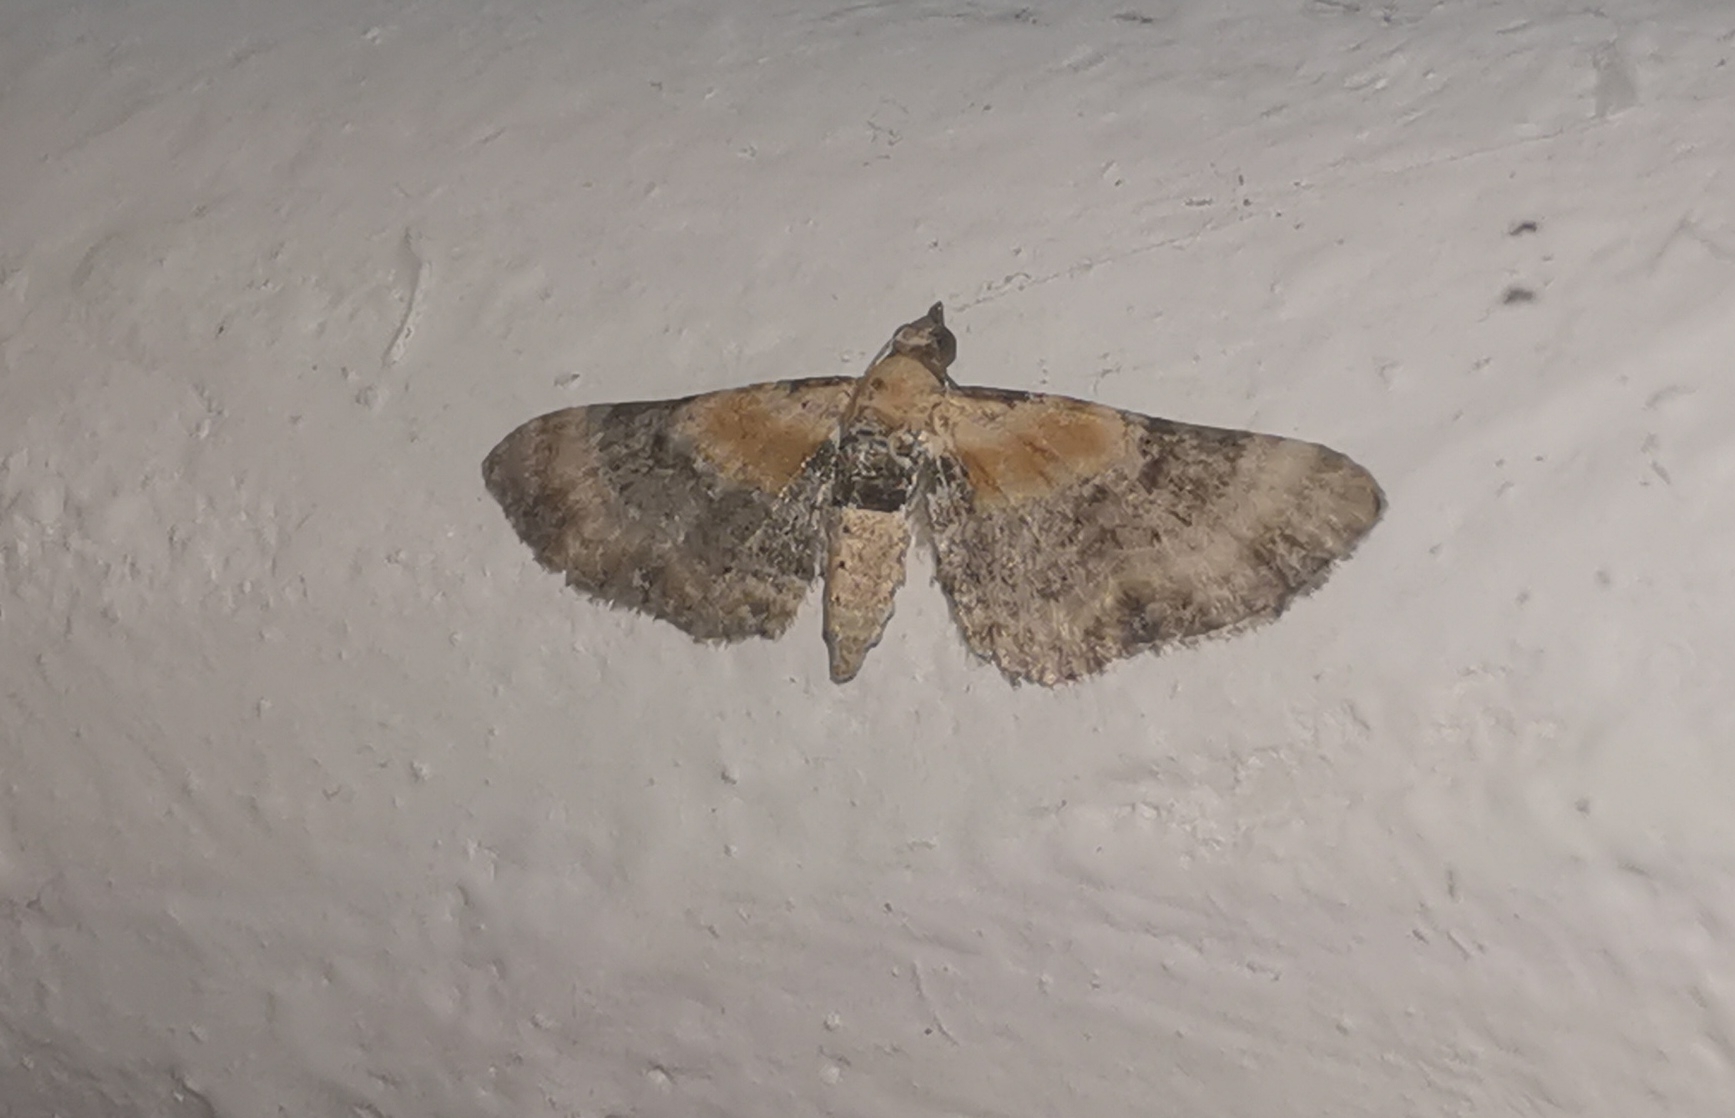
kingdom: Animalia
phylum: Arthropoda
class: Insecta
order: Lepidoptera
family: Geometridae
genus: Eupithecia
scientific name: Eupithecia linariata
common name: Toadflax pug
